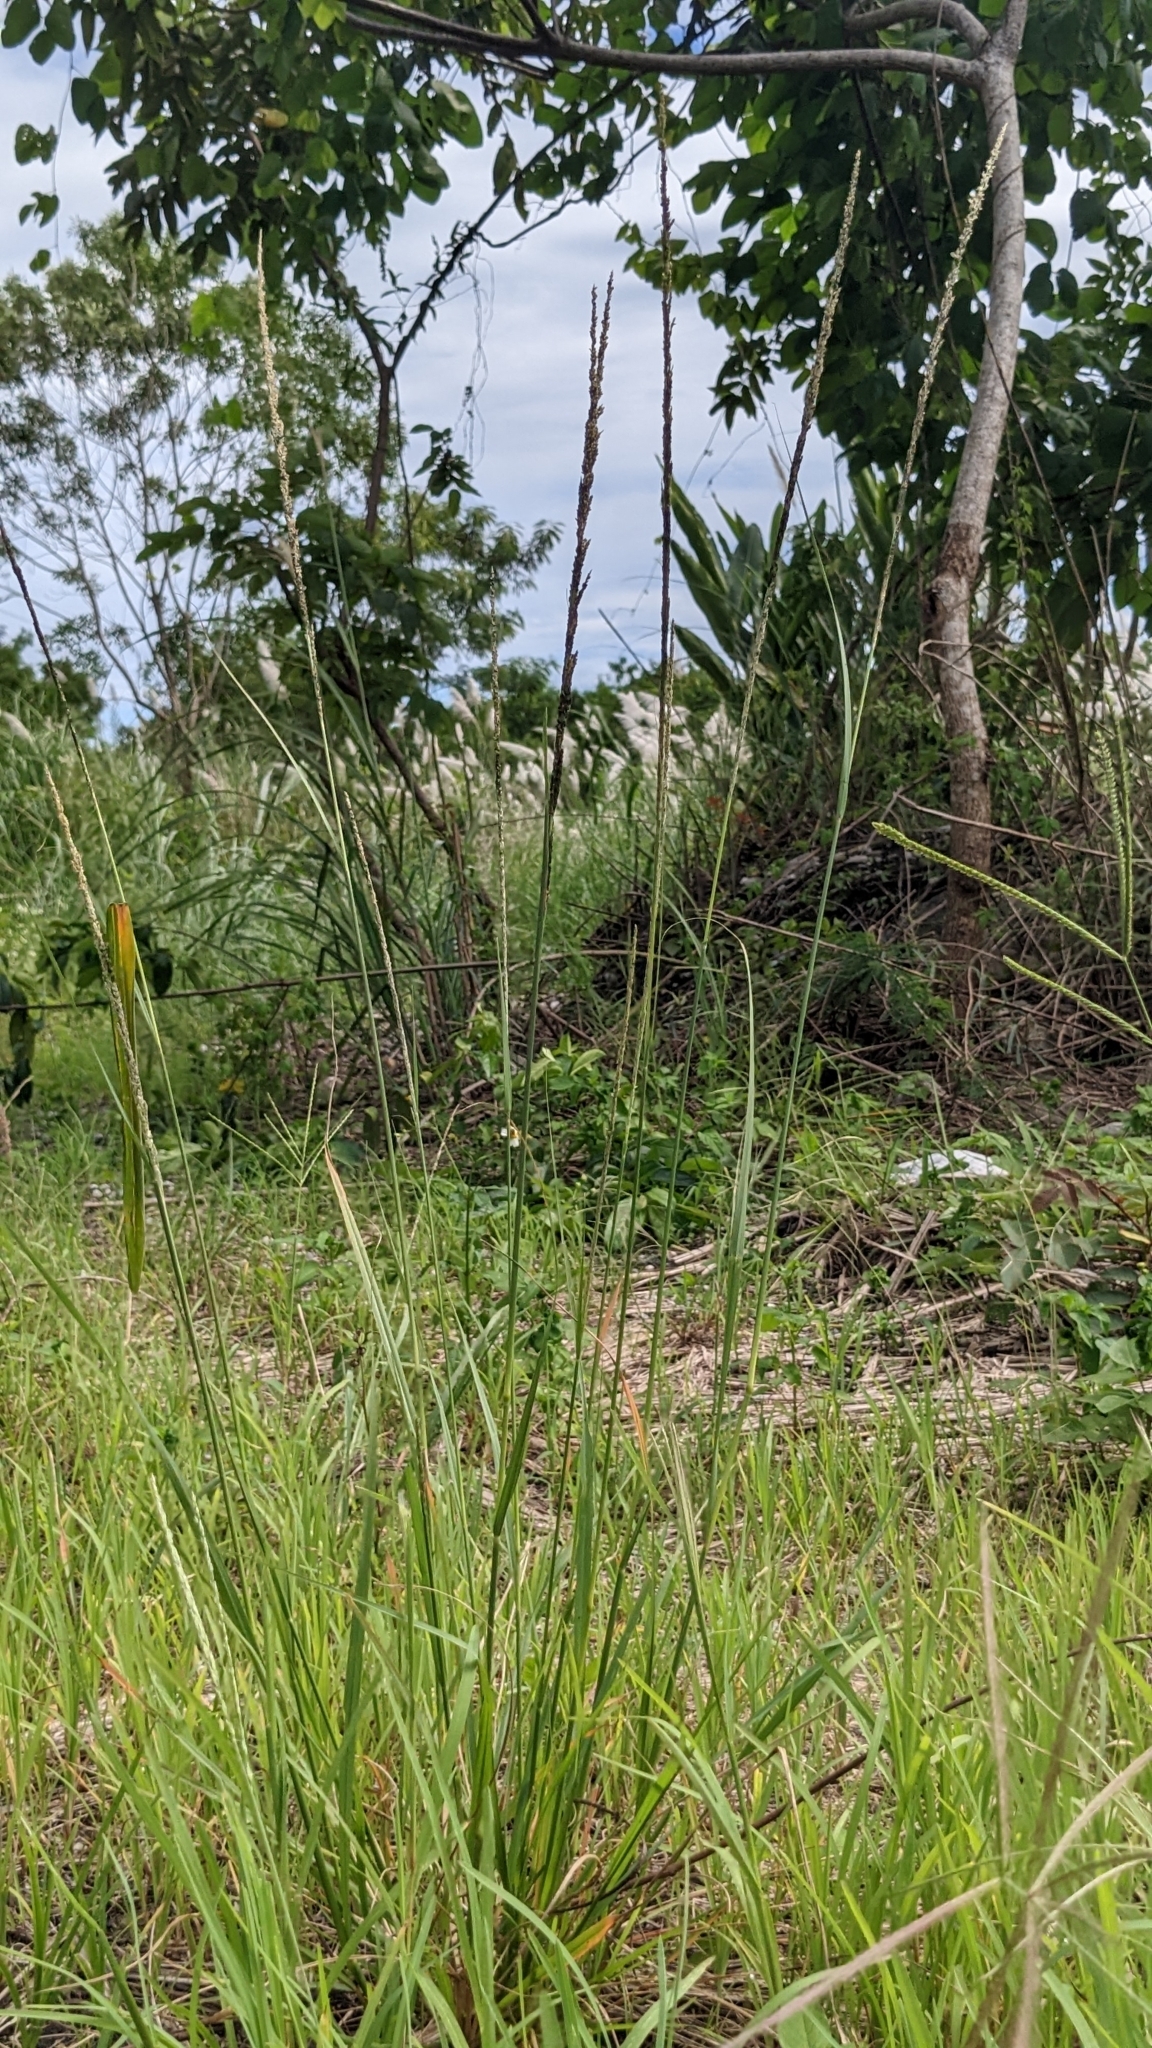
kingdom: Plantae
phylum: Tracheophyta
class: Liliopsida
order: Poales
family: Poaceae
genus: Sporobolus
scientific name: Sporobolus indicus
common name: Smut grass
